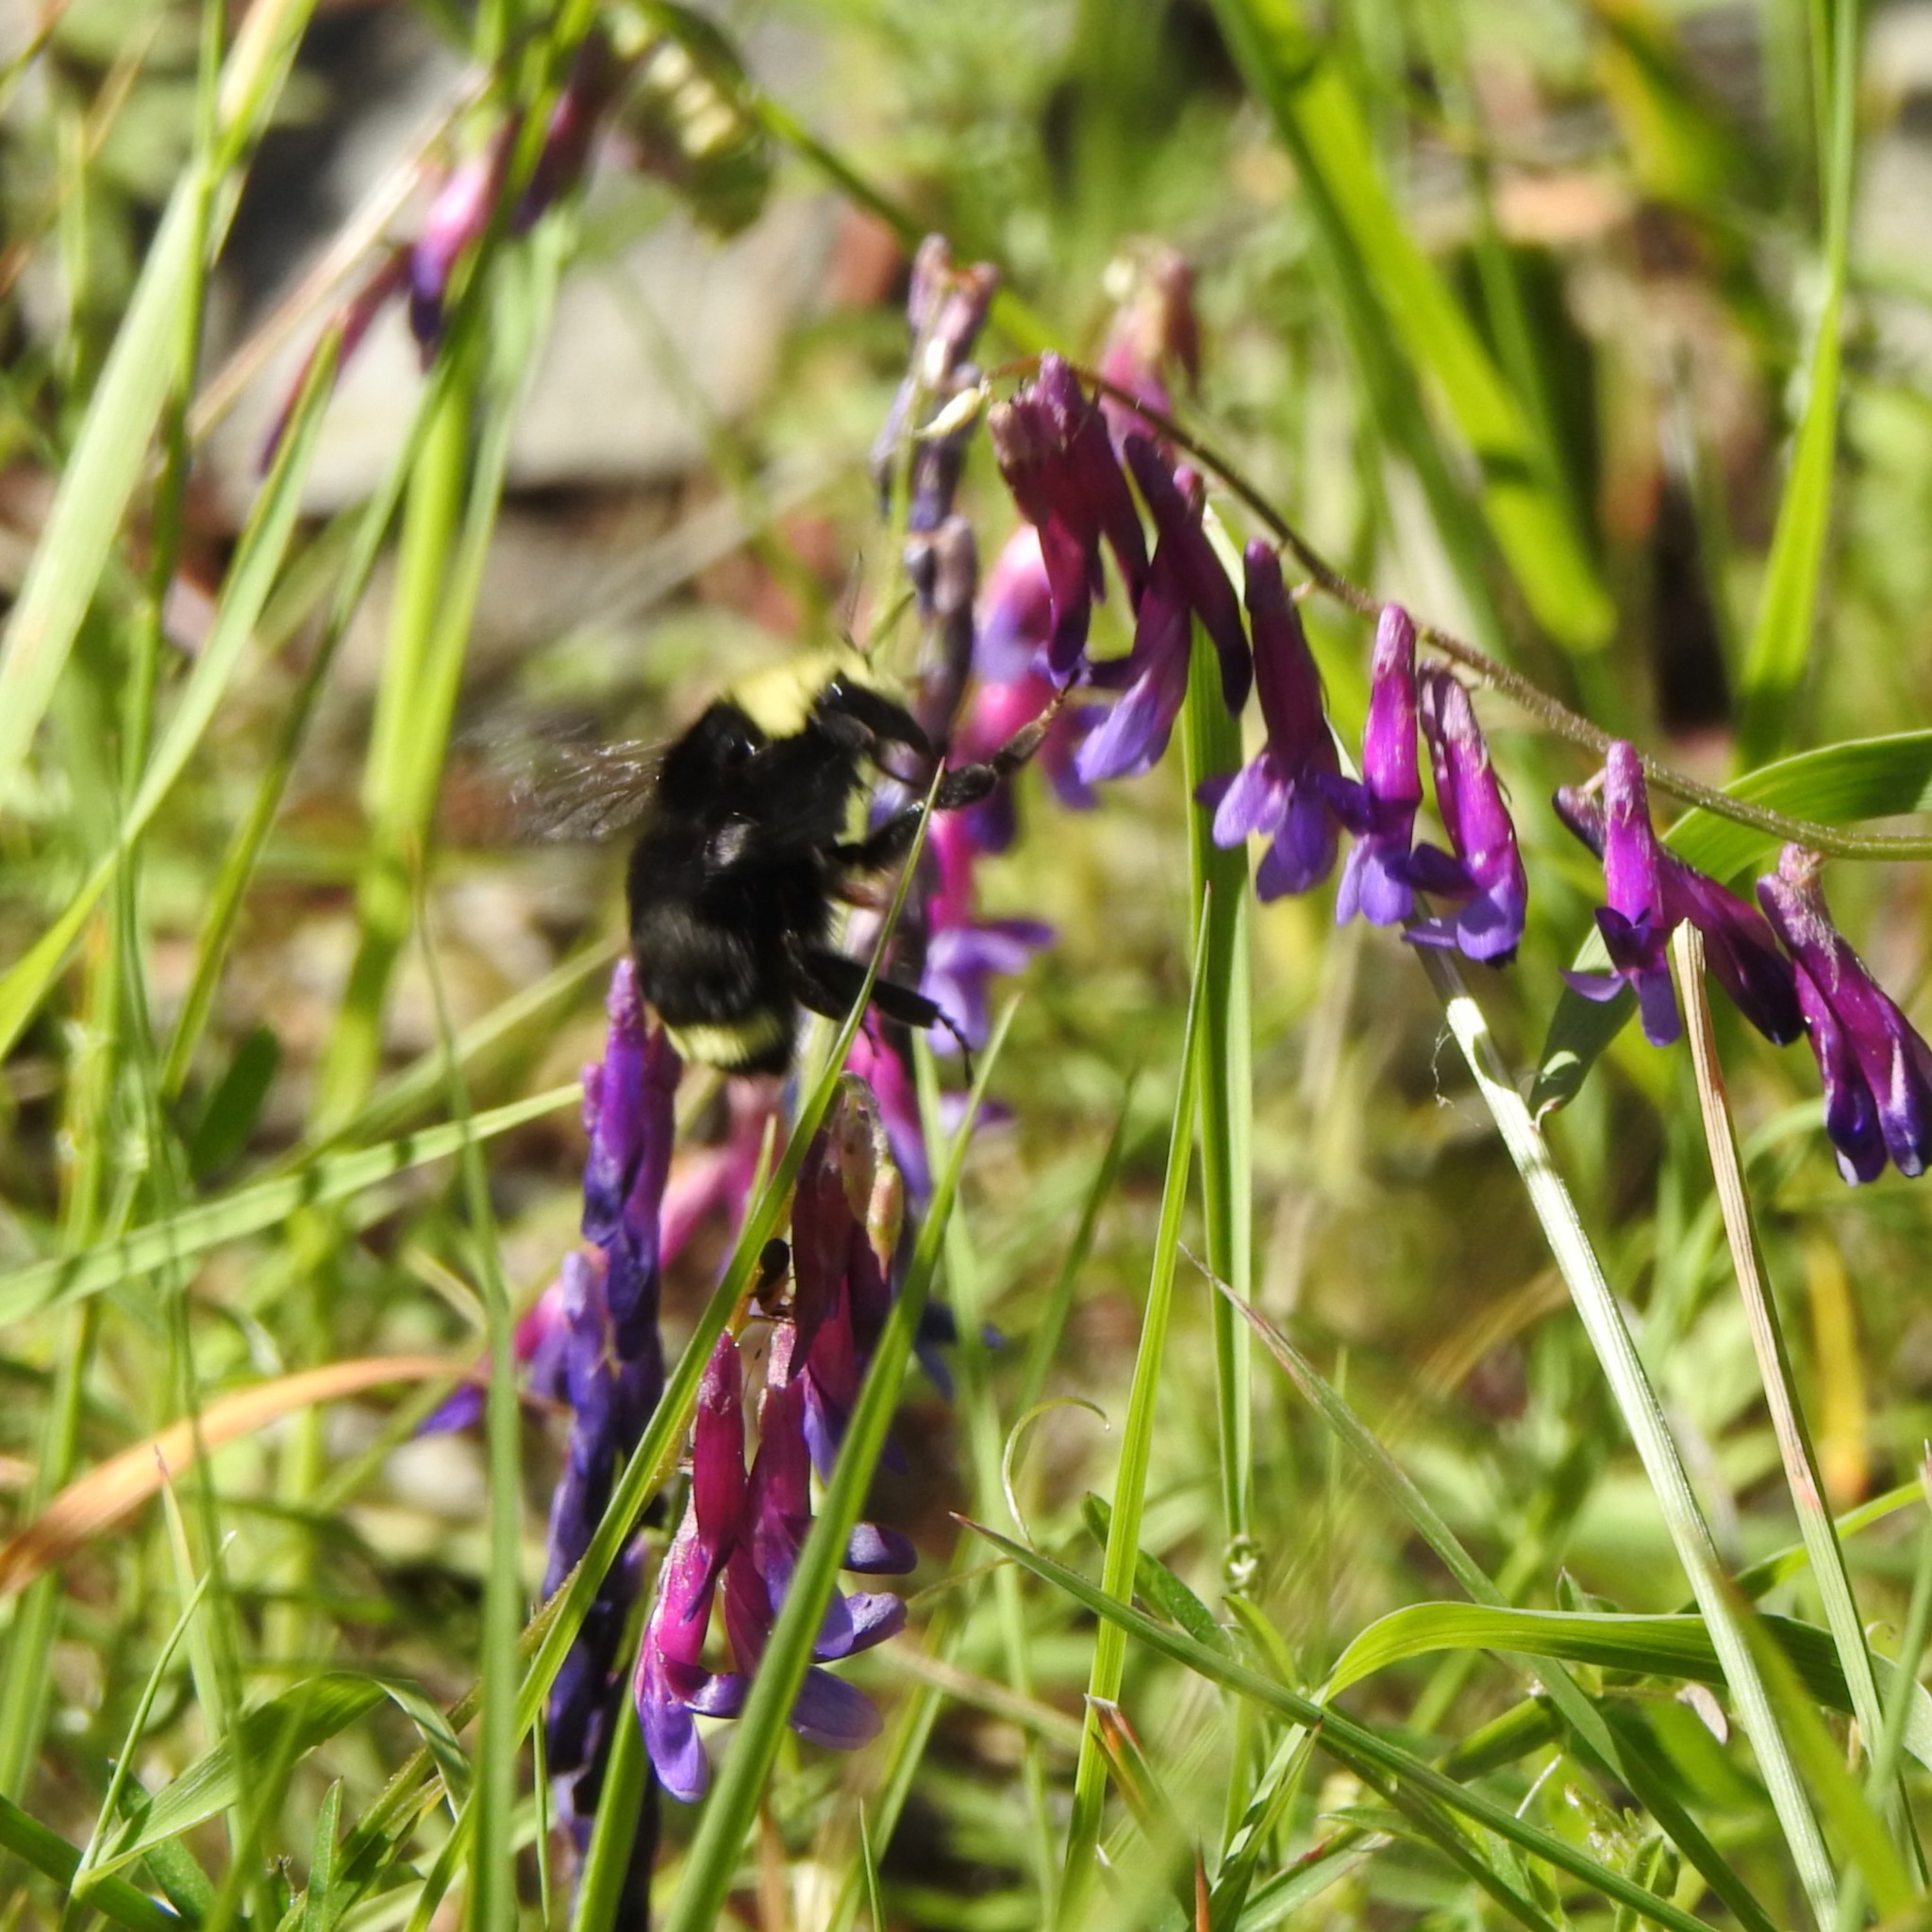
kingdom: Plantae
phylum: Tracheophyta
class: Magnoliopsida
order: Fabales
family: Fabaceae
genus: Vicia
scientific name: Vicia villosa
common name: Fodder vetch
